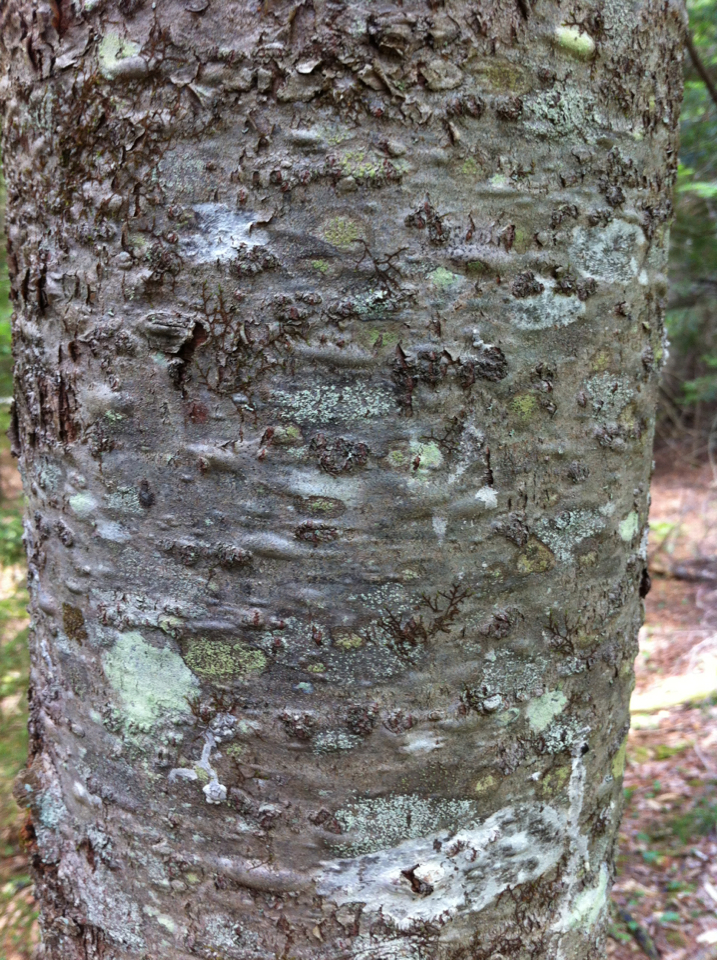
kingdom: Plantae
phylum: Tracheophyta
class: Pinopsida
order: Pinales
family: Pinaceae
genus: Abies
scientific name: Abies balsamea
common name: Balsam fir
